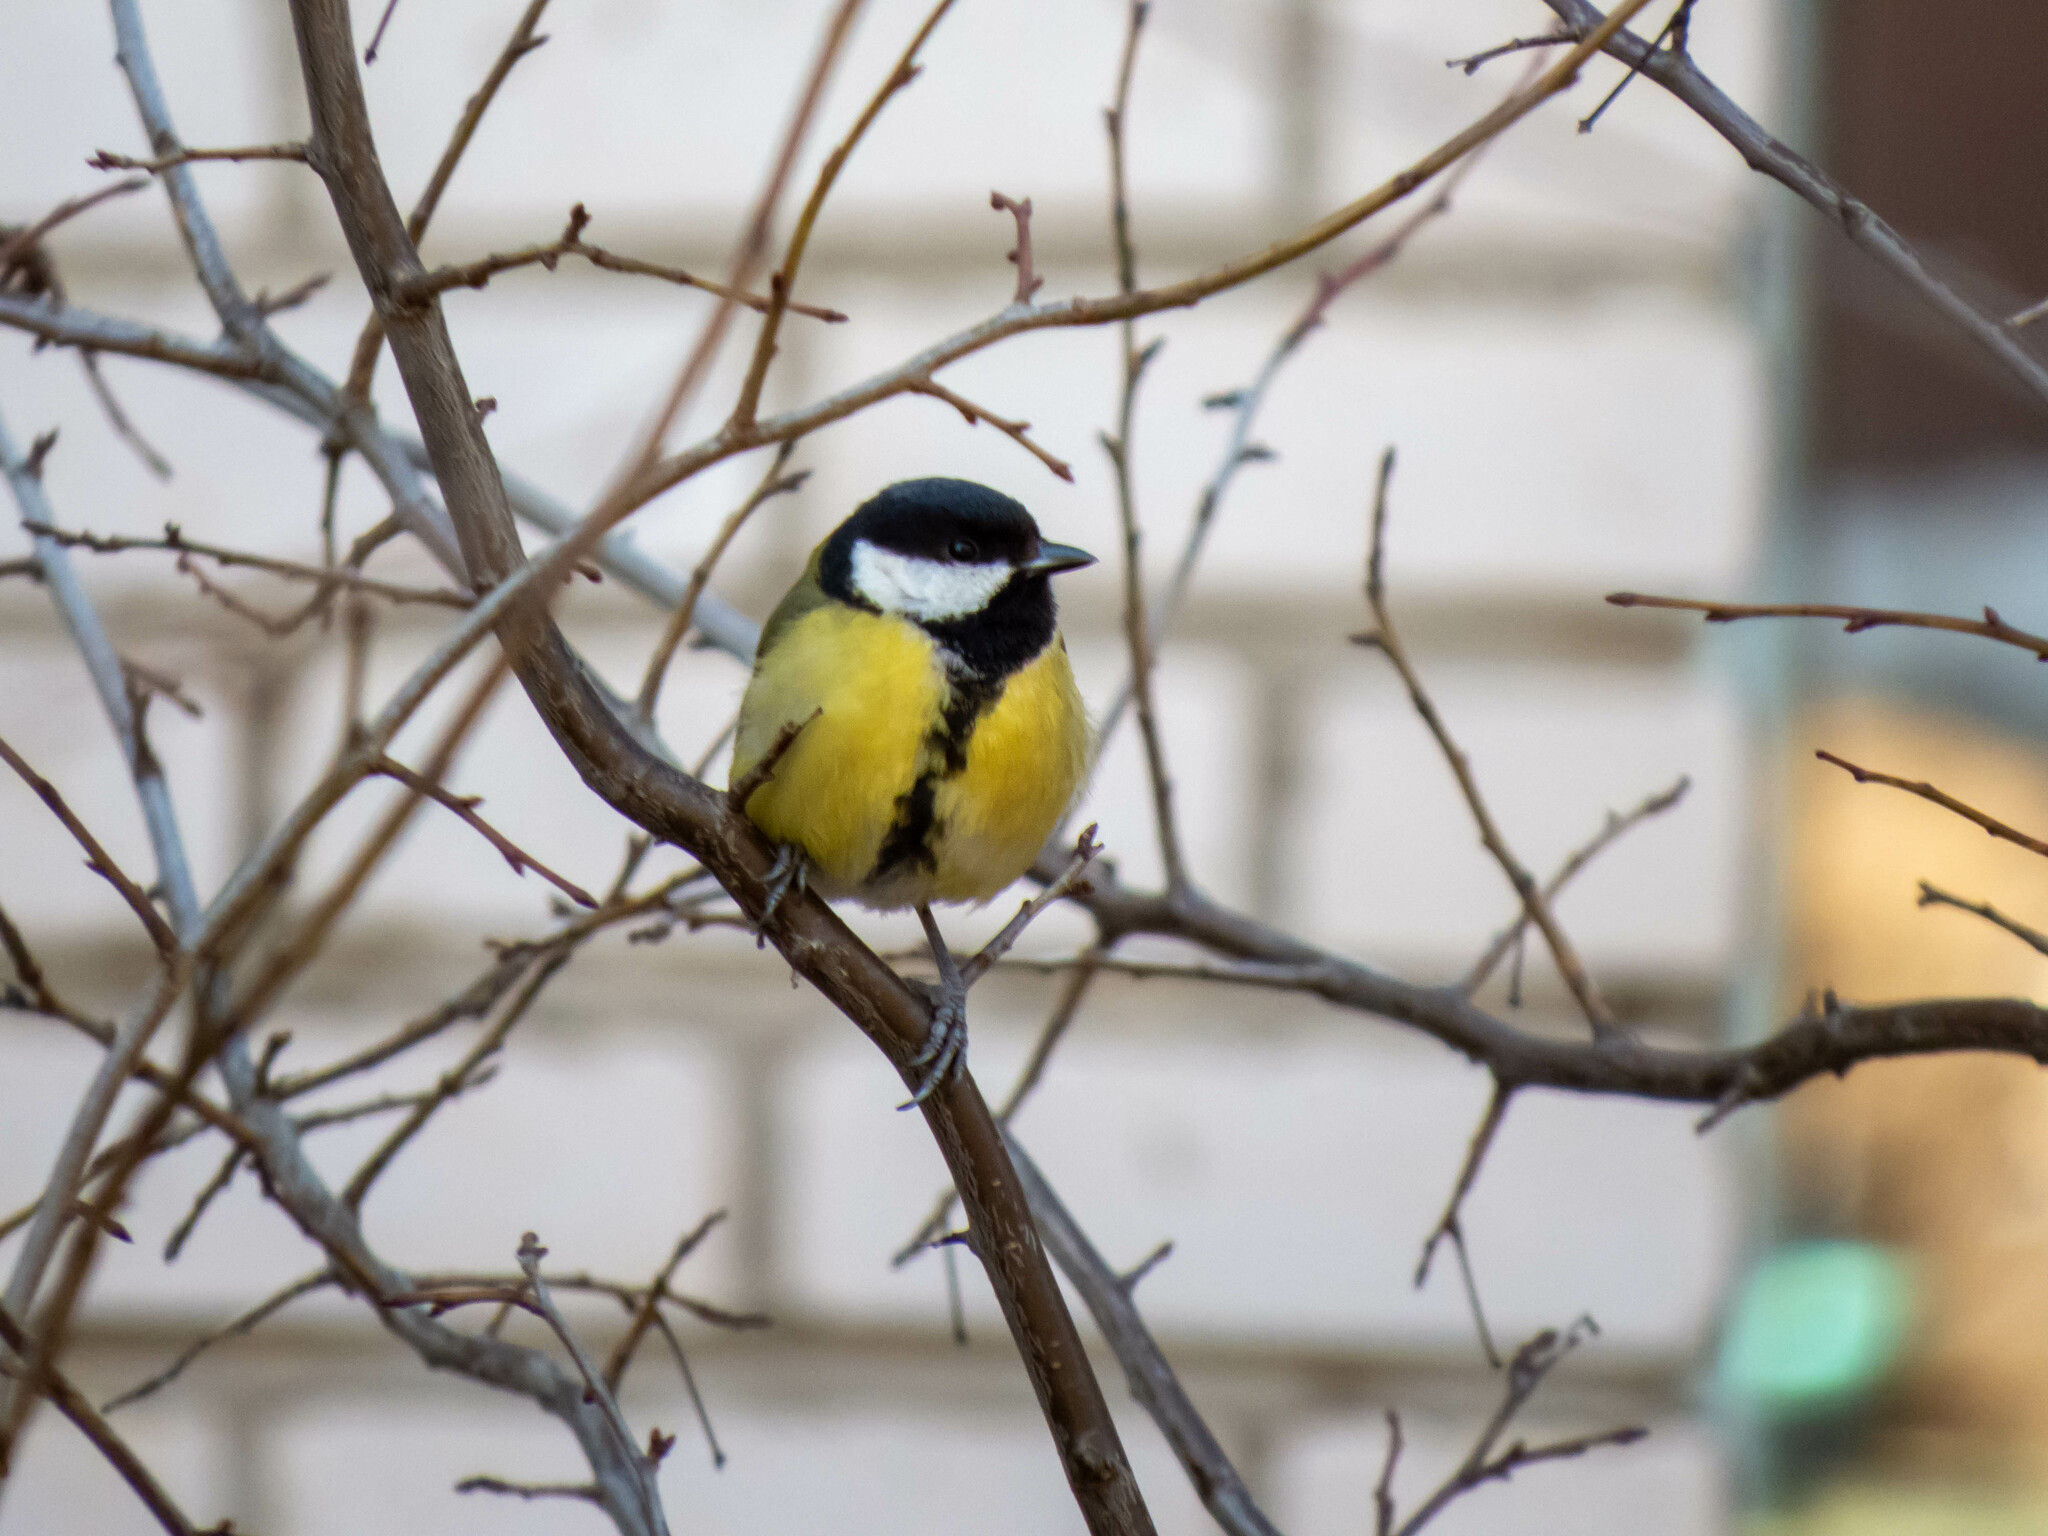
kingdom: Animalia
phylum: Chordata
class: Aves
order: Passeriformes
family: Paridae
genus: Parus
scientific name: Parus major
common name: Great tit
